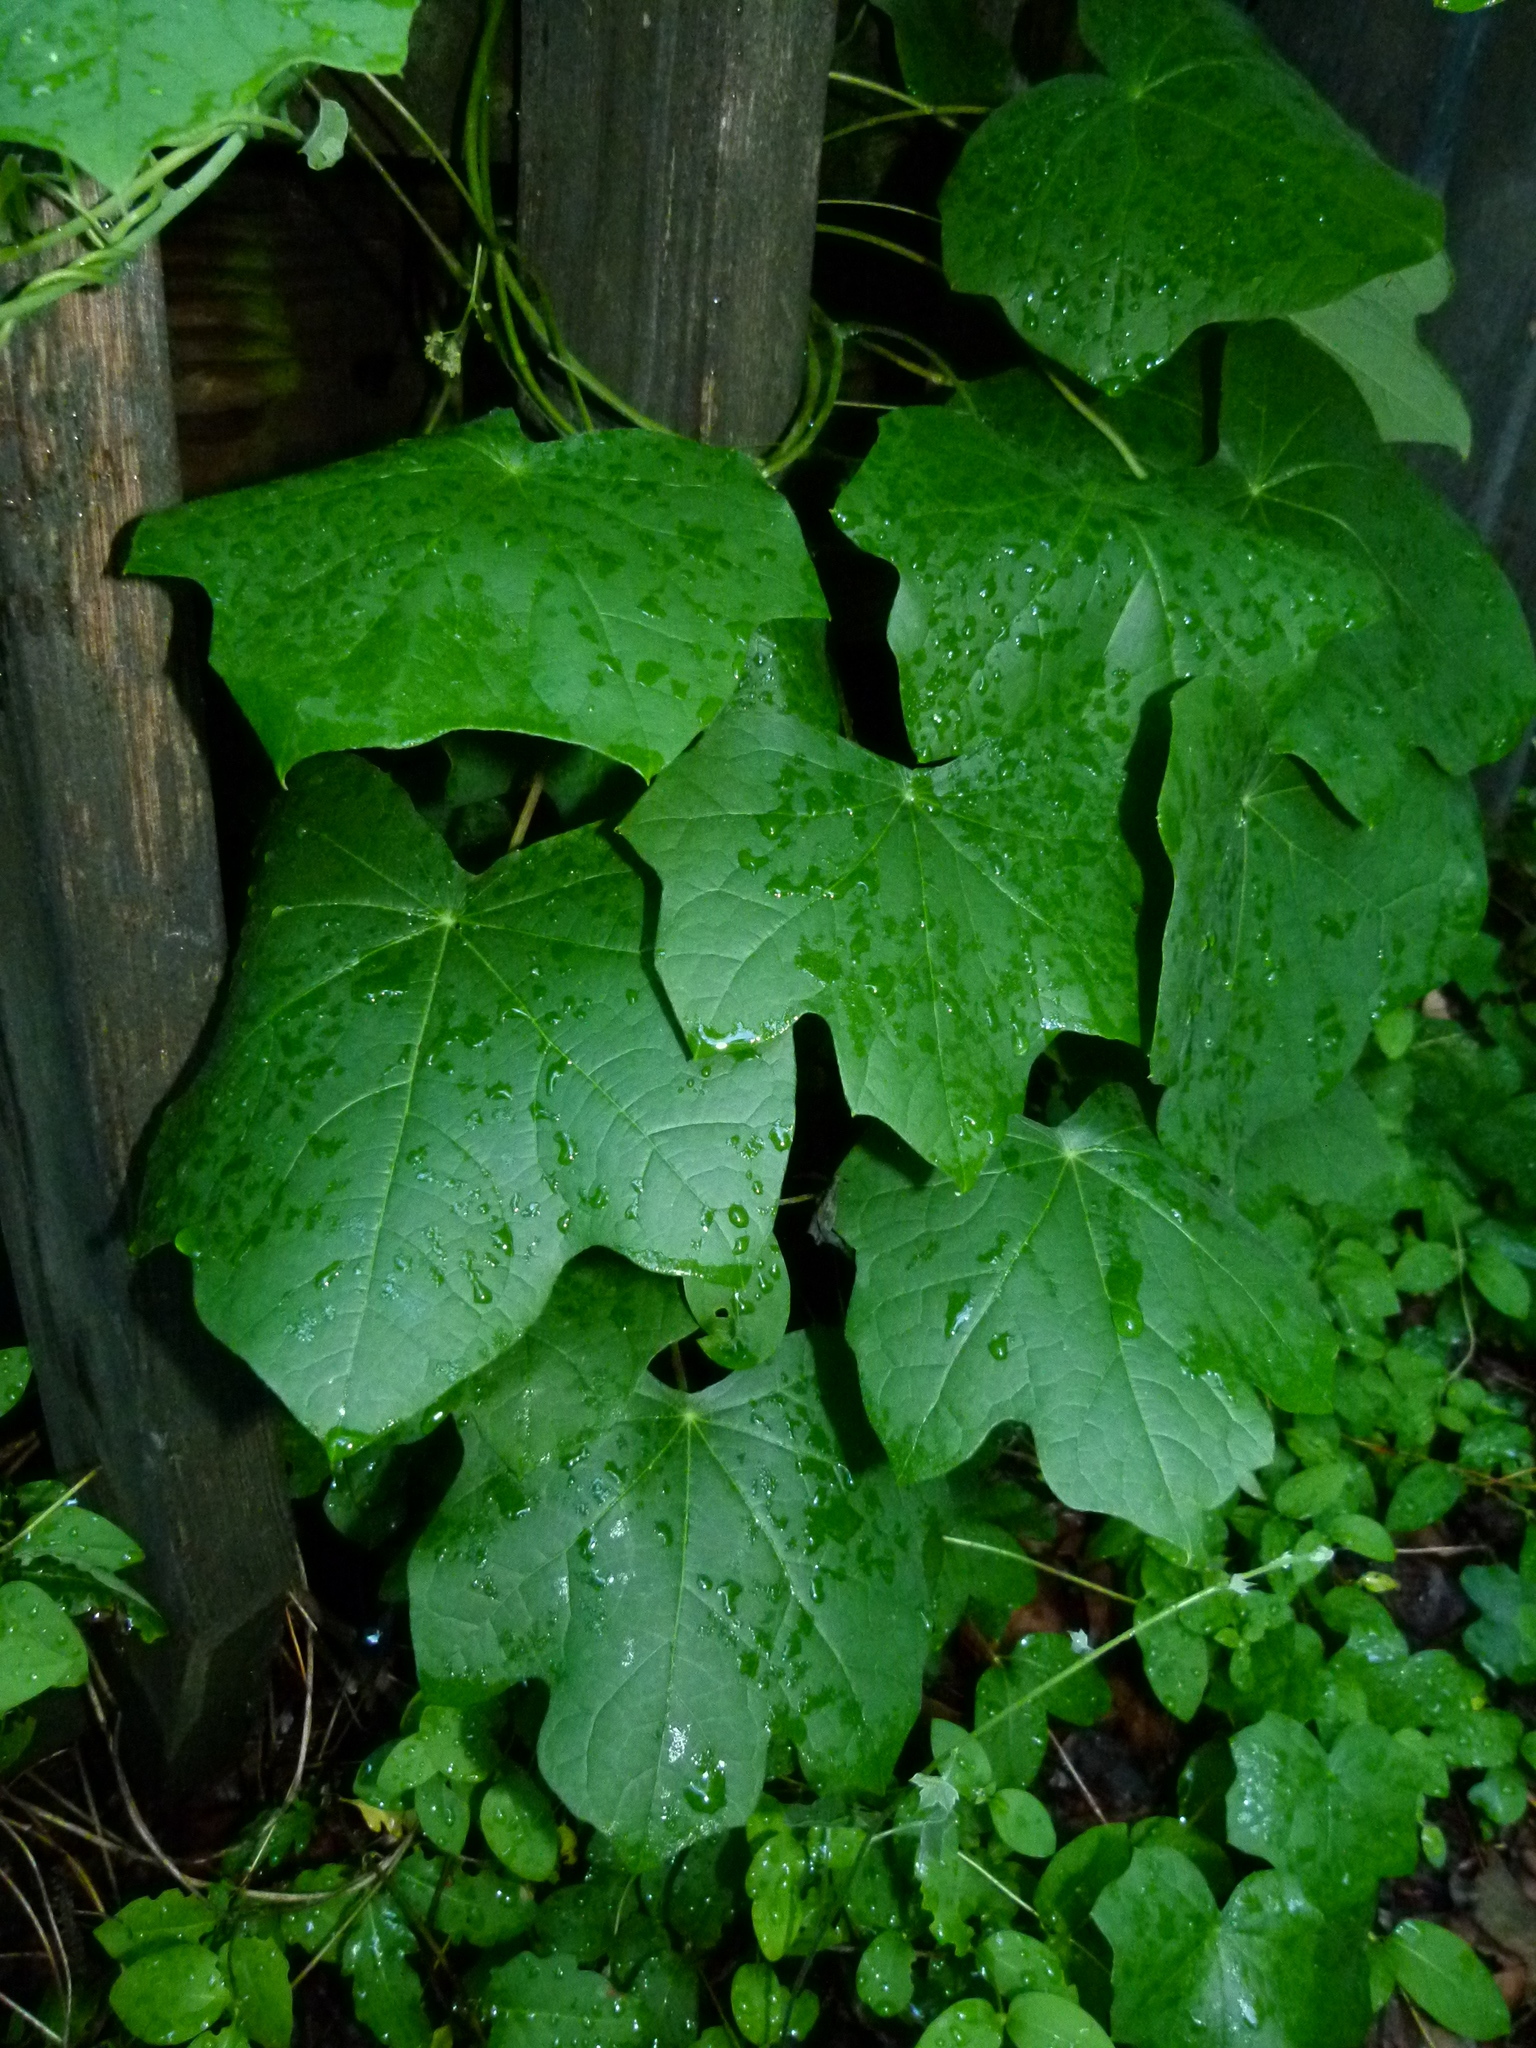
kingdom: Plantae
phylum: Tracheophyta
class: Magnoliopsida
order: Ranunculales
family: Menispermaceae
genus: Menispermum
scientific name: Menispermum canadense
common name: Moonseed
